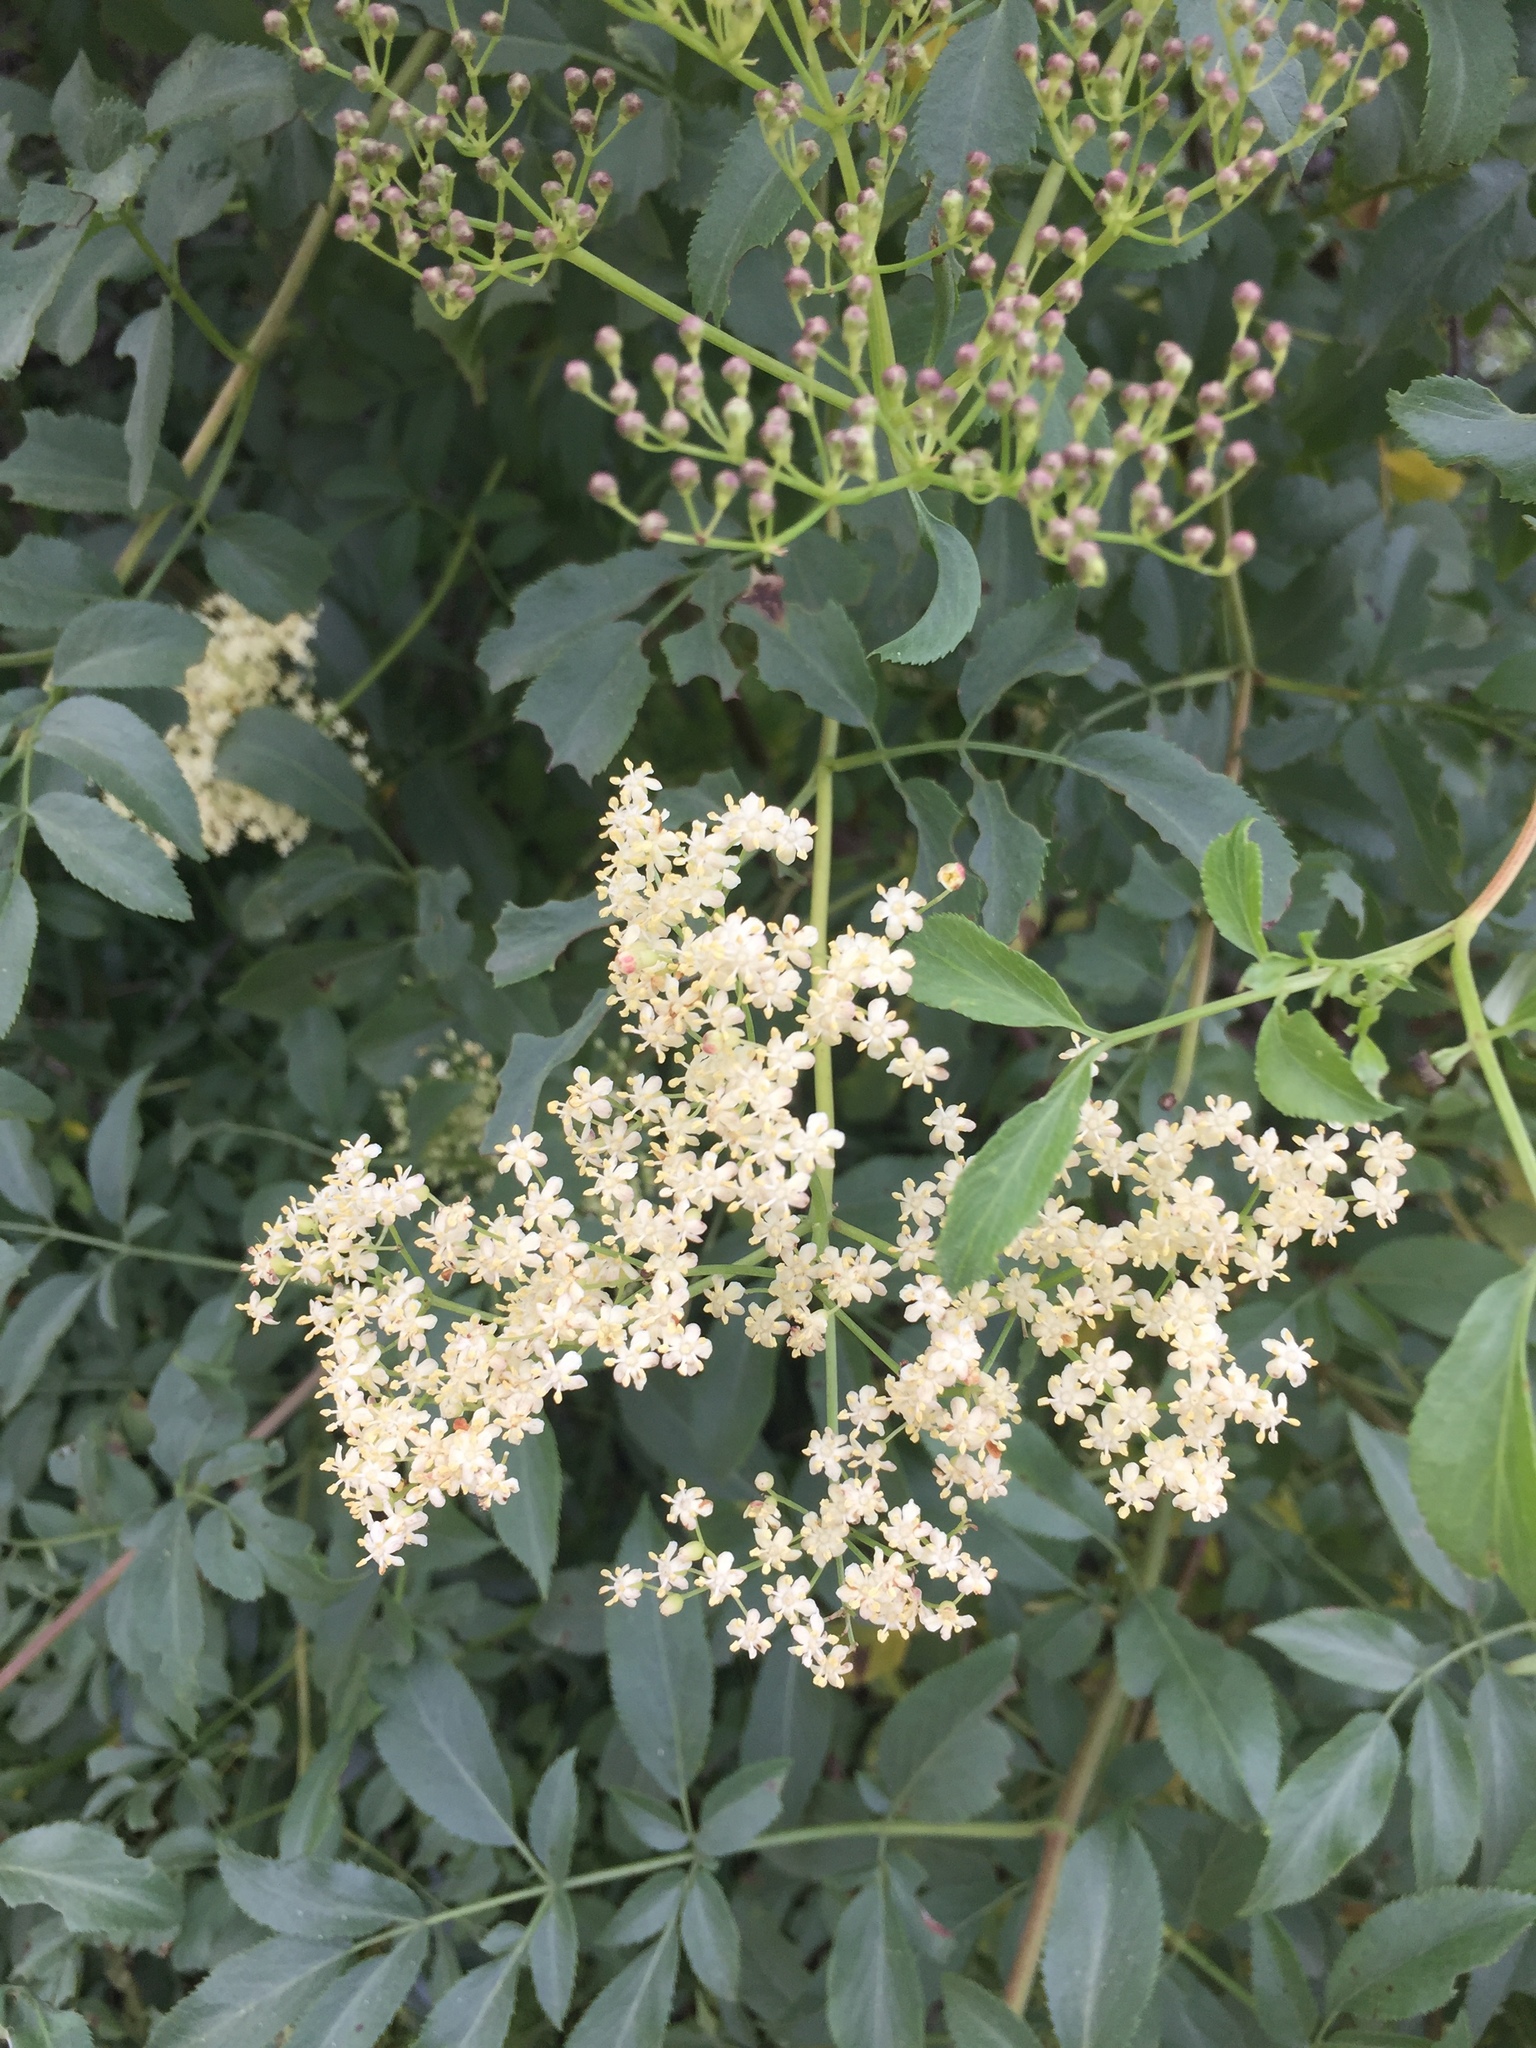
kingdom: Plantae
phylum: Tracheophyta
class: Magnoliopsida
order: Dipsacales
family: Viburnaceae
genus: Sambucus
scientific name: Sambucus cerulea
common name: Blue elder
